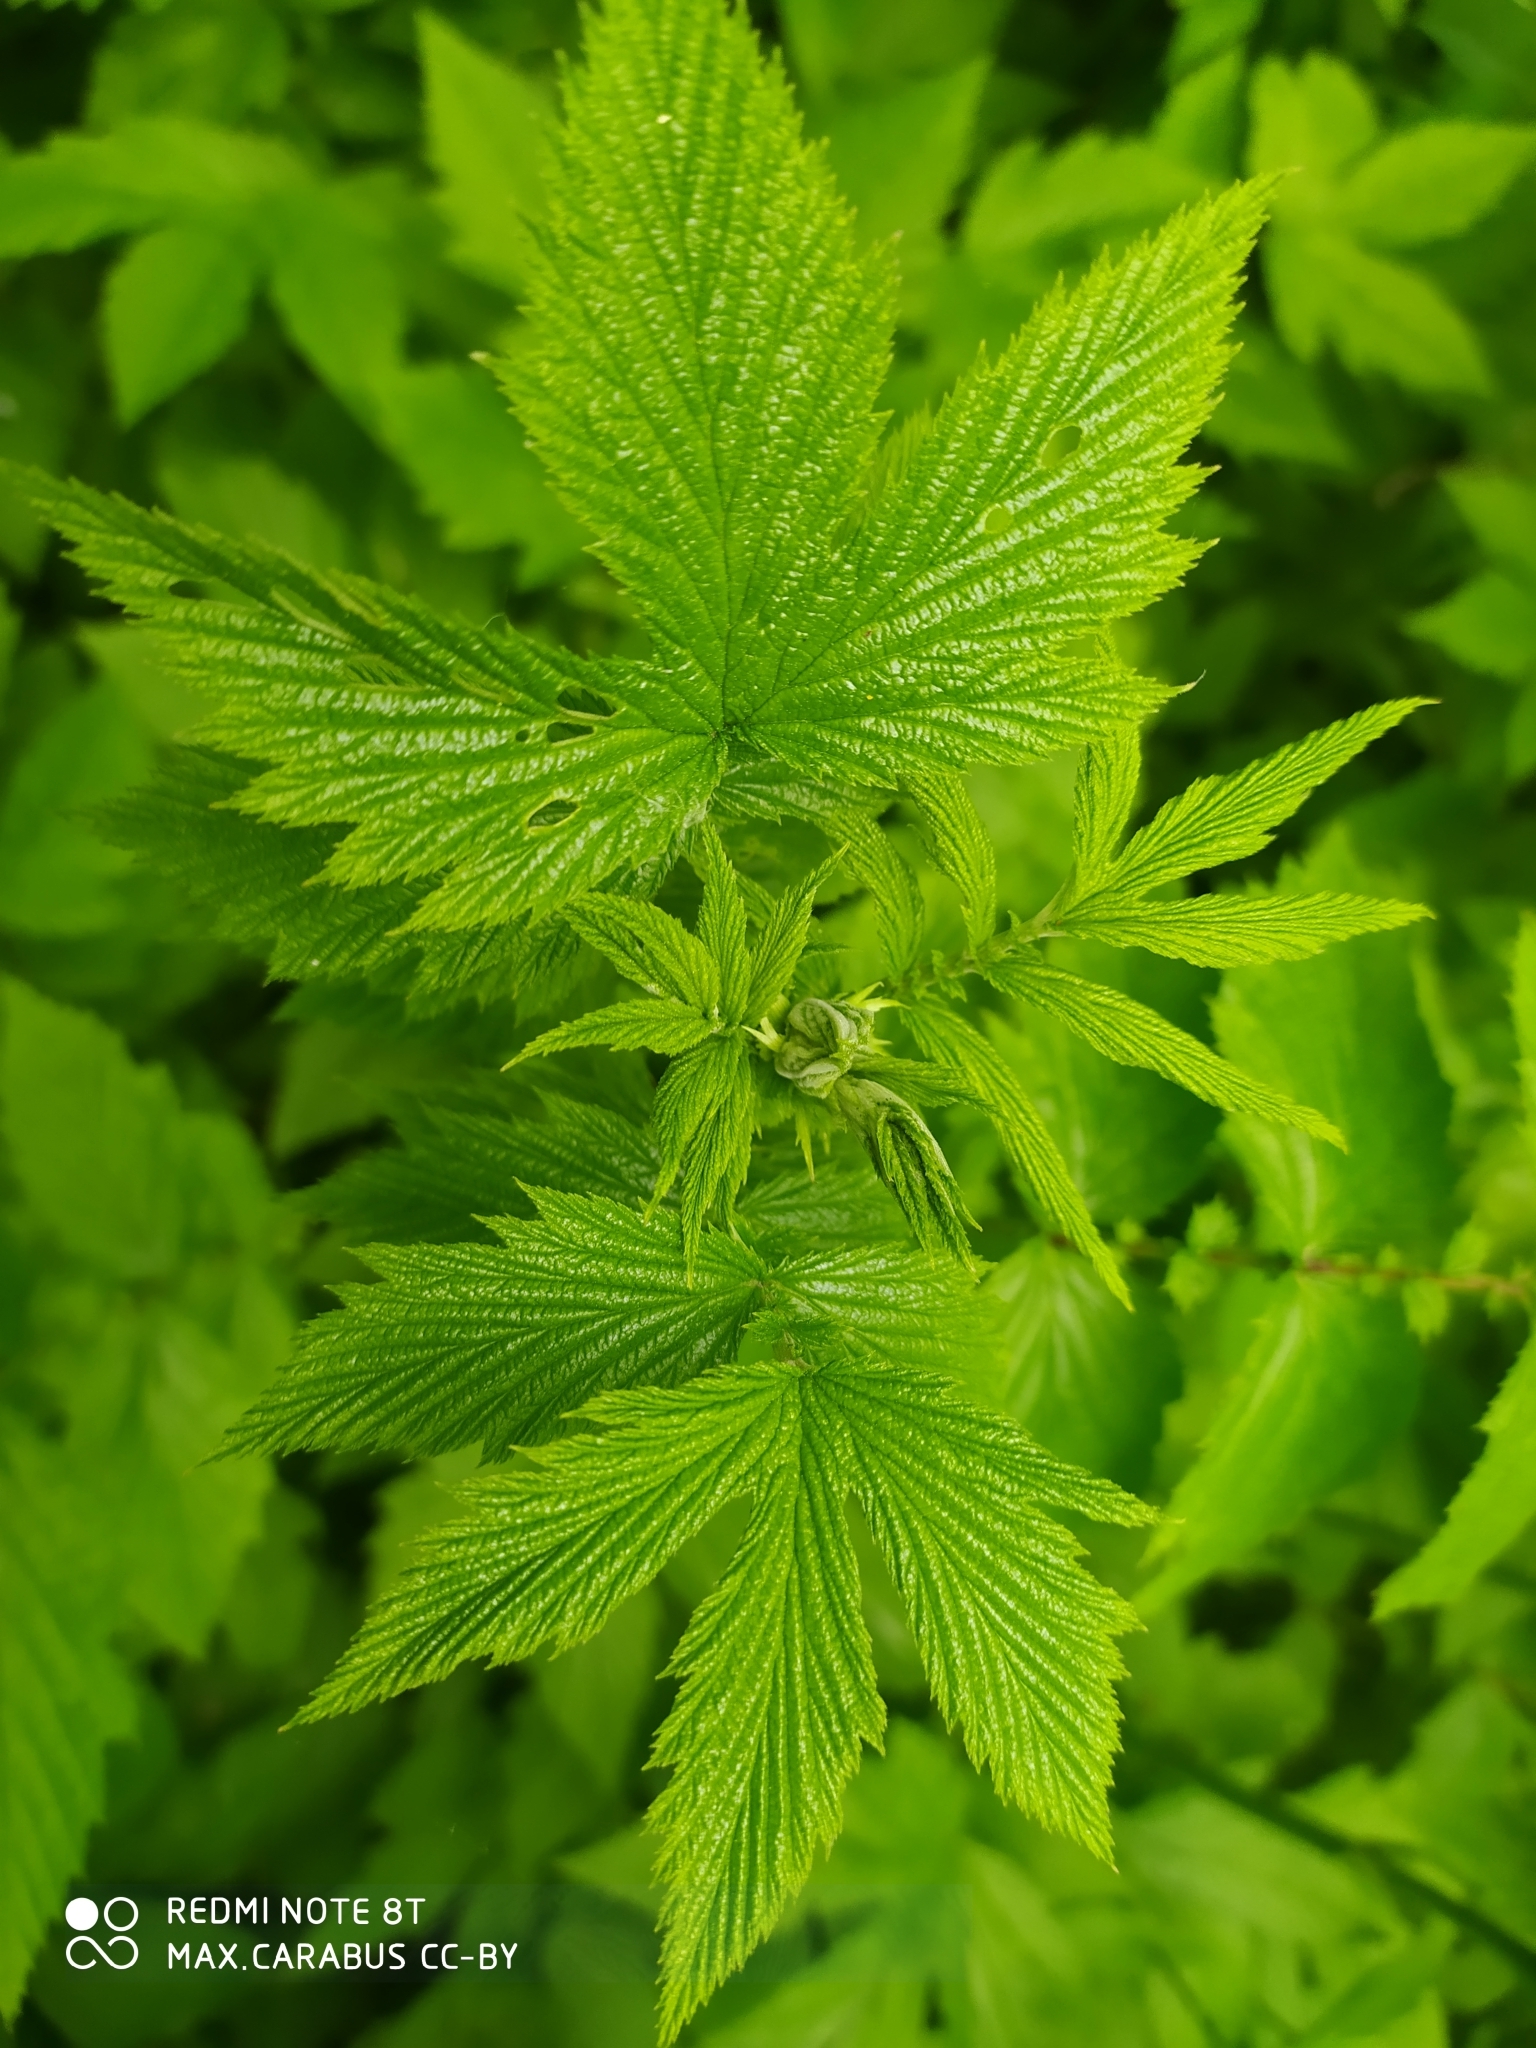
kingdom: Plantae
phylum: Tracheophyta
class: Magnoliopsida
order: Rosales
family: Rosaceae
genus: Filipendula
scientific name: Filipendula ulmaria
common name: Meadowsweet
